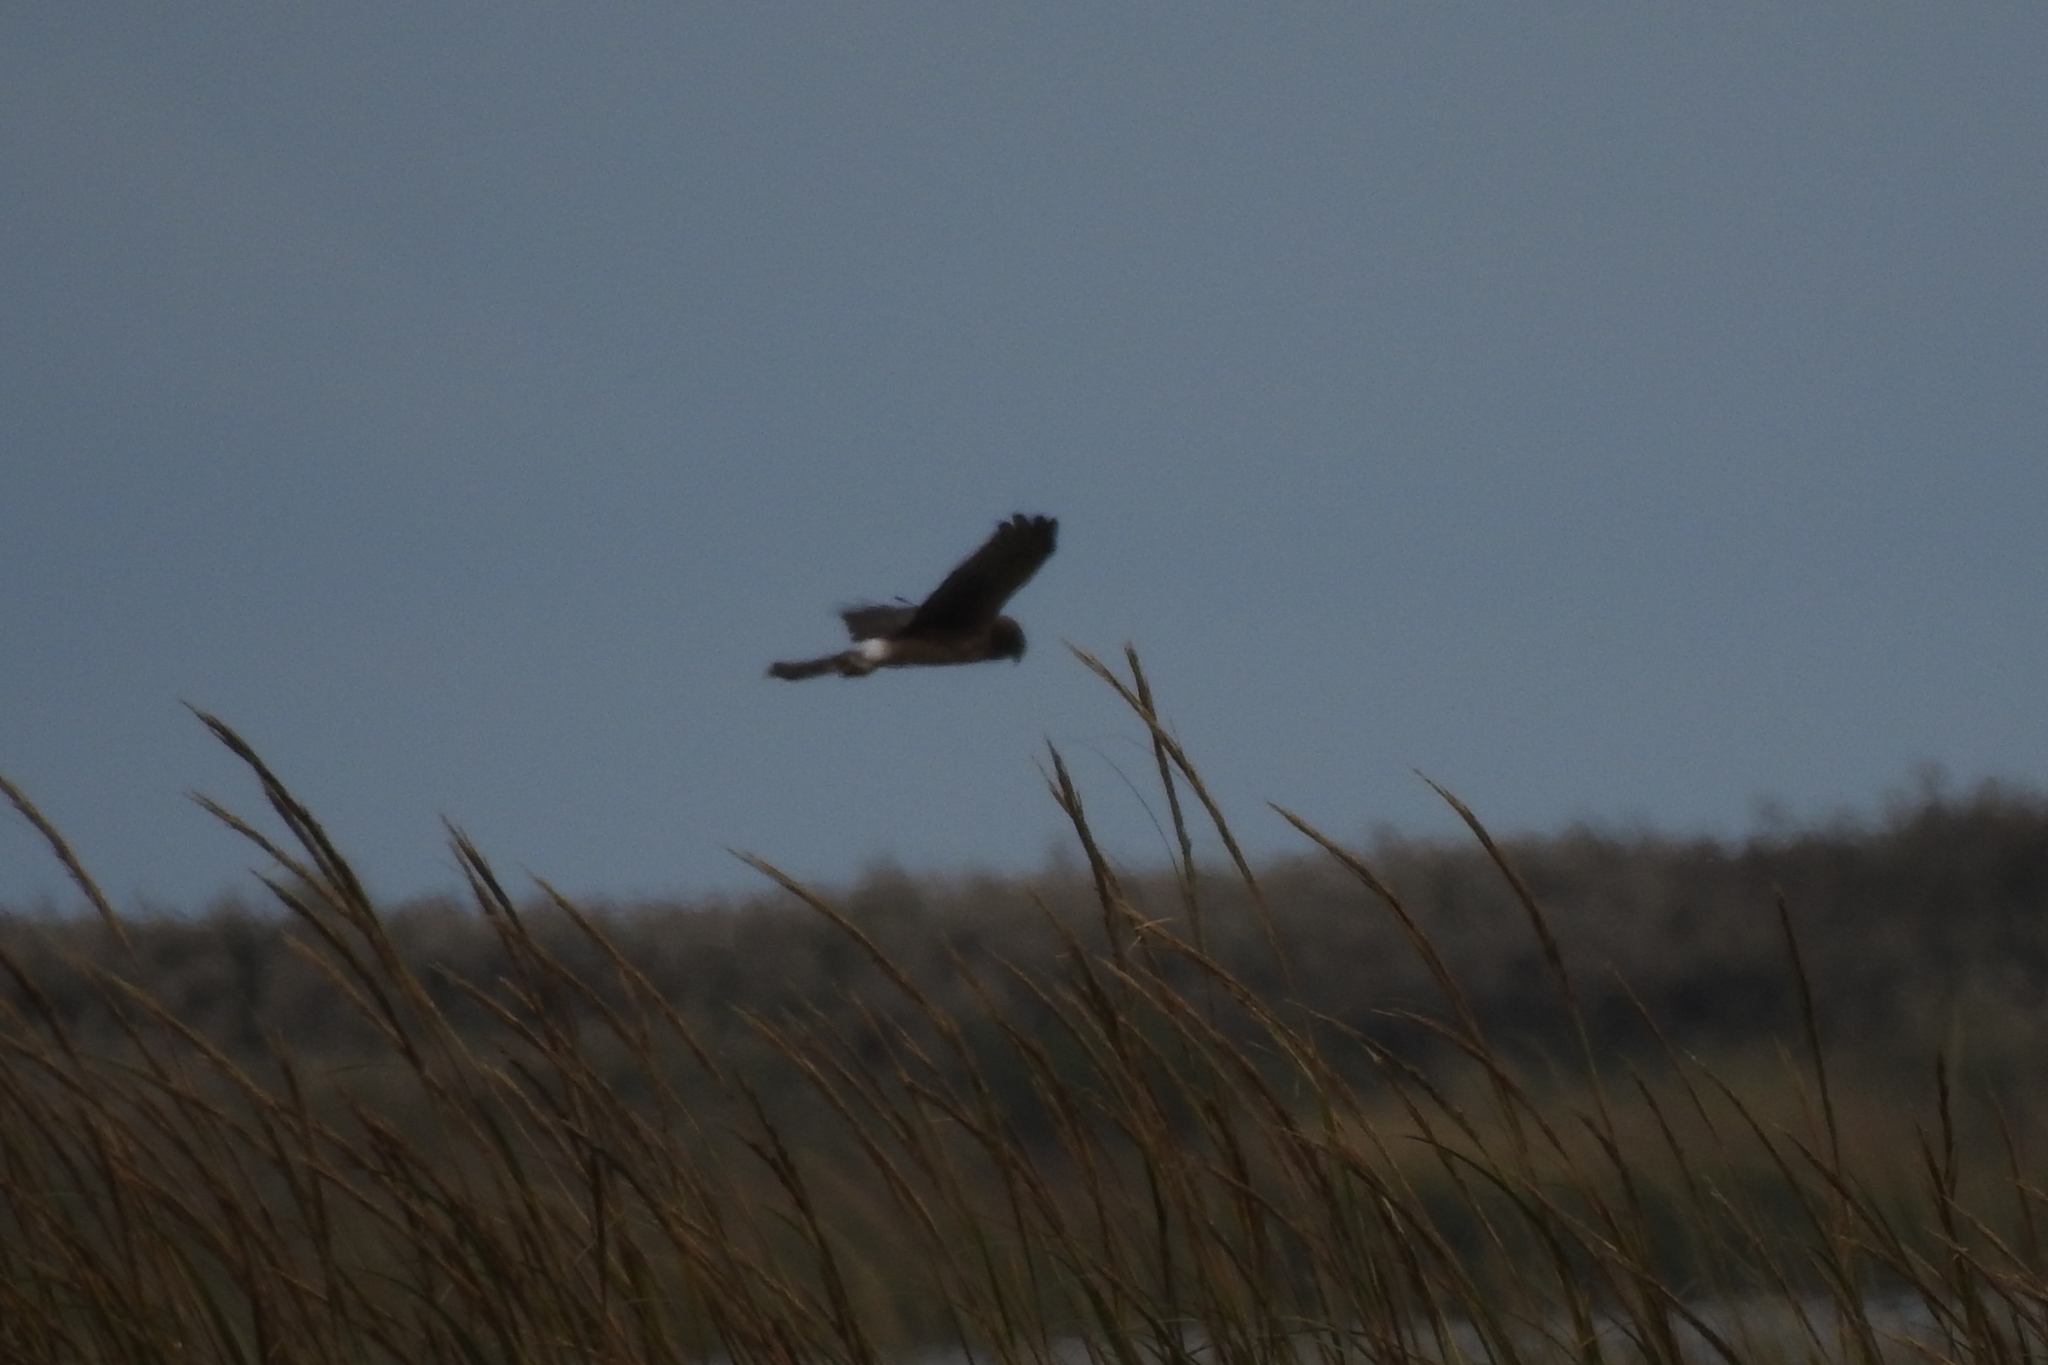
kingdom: Animalia
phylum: Chordata
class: Aves
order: Accipitriformes
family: Accipitridae
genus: Circus
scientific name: Circus cyaneus
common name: Hen harrier
